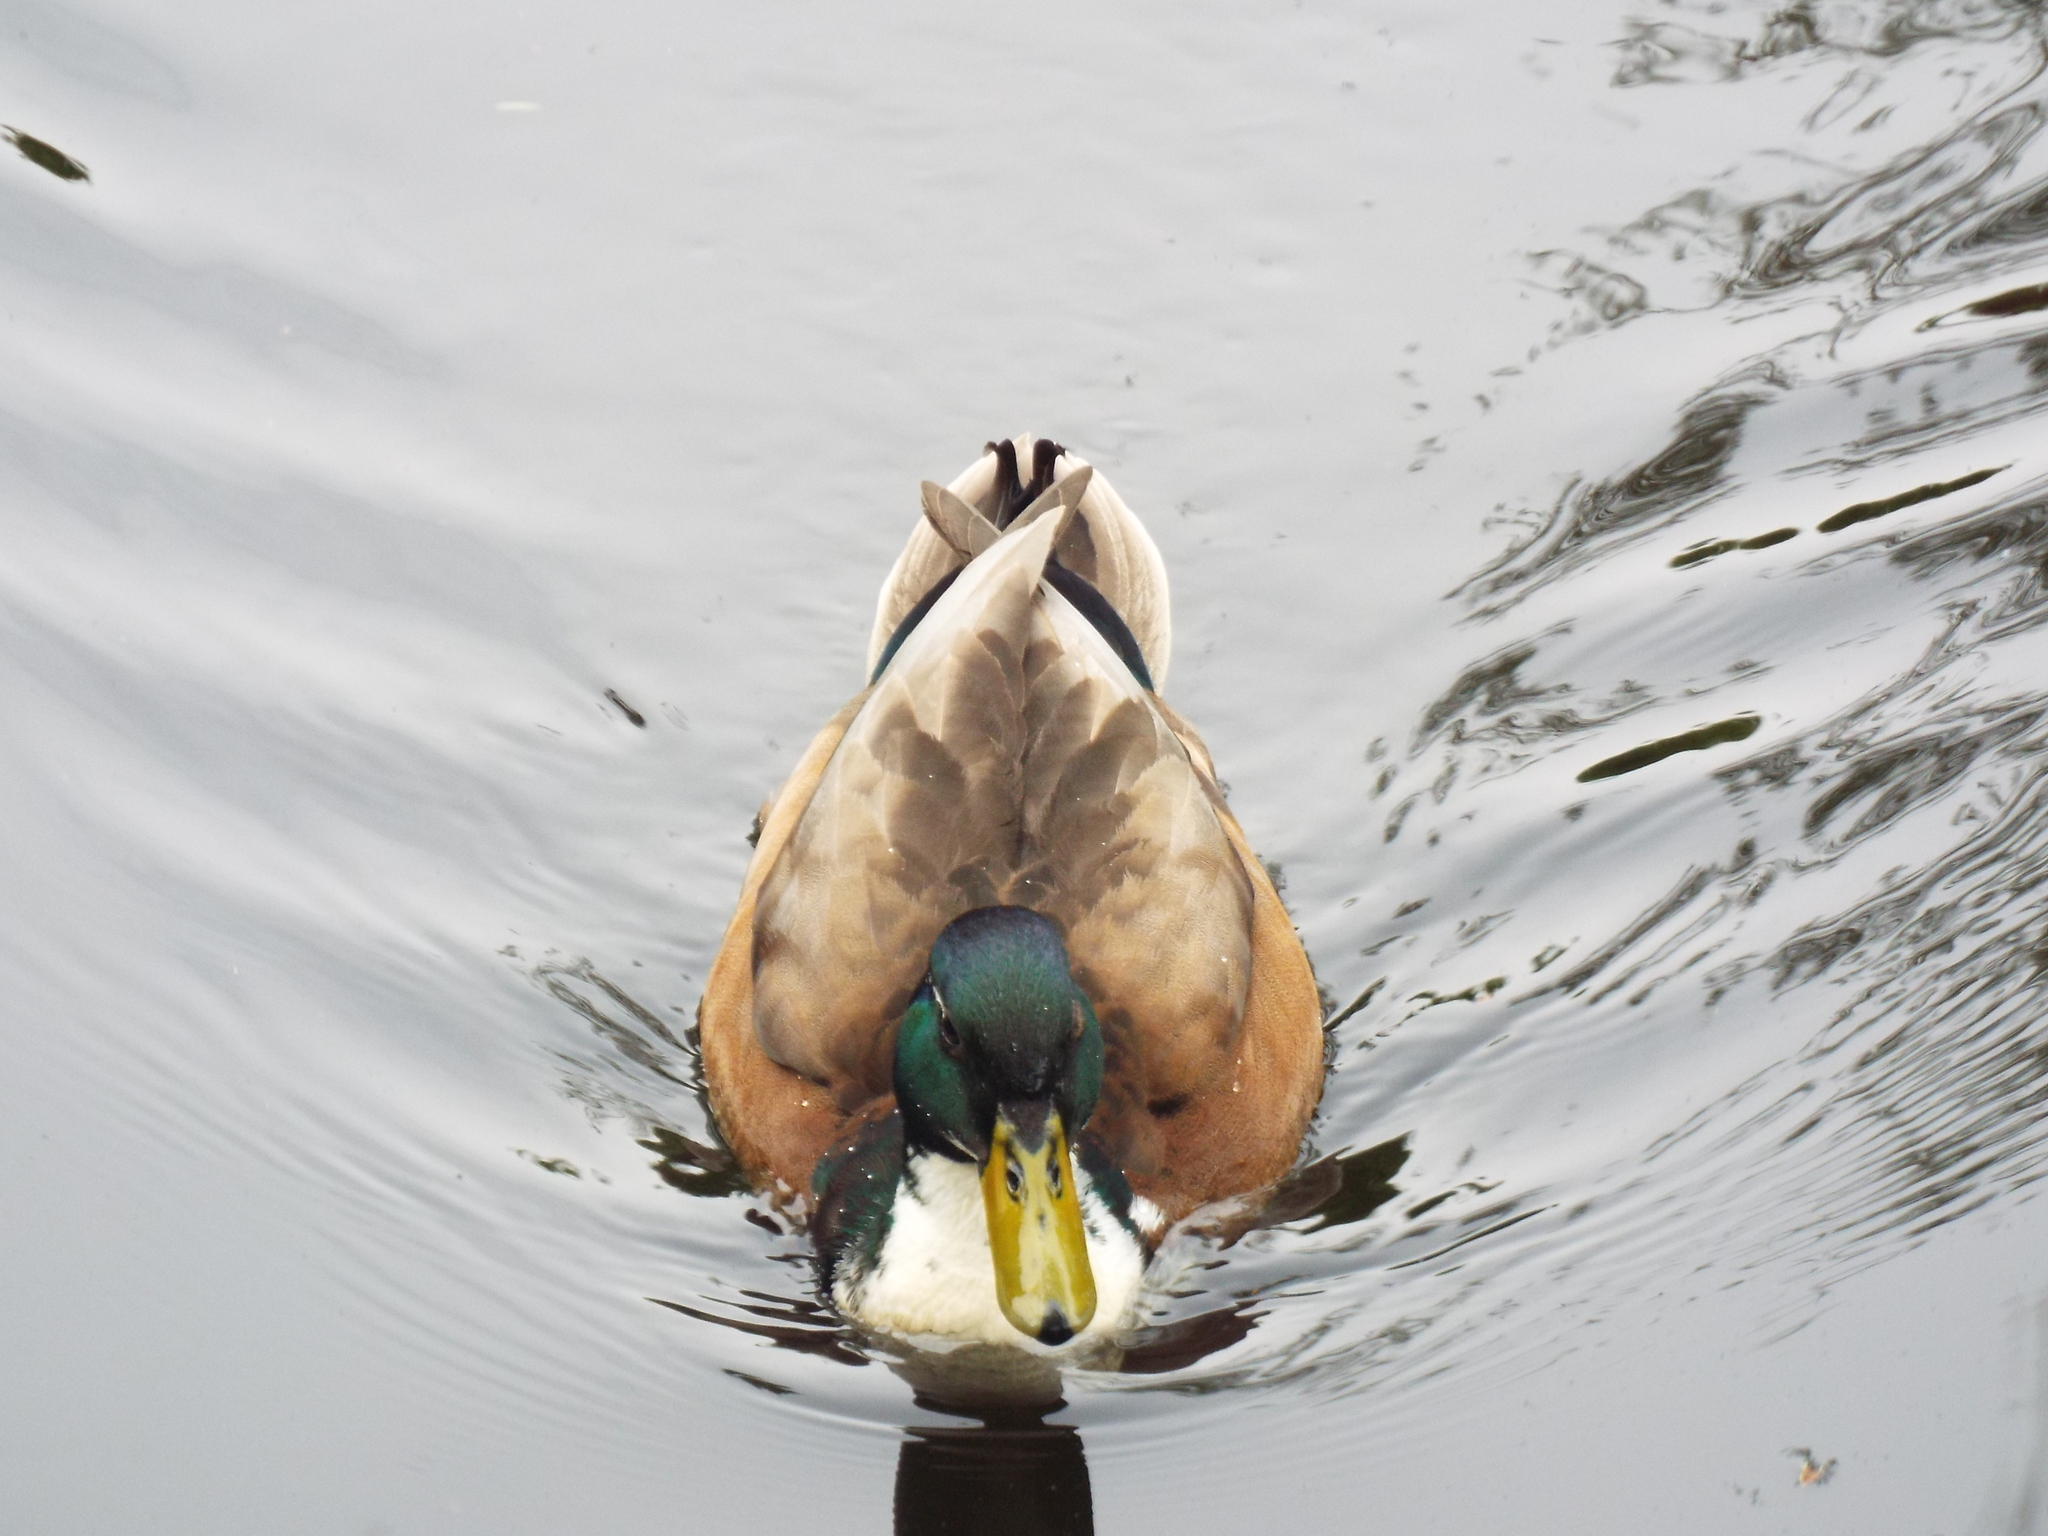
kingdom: Animalia
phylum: Chordata
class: Aves
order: Anseriformes
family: Anatidae
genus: Anas
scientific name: Anas platyrhynchos
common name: Mallard
